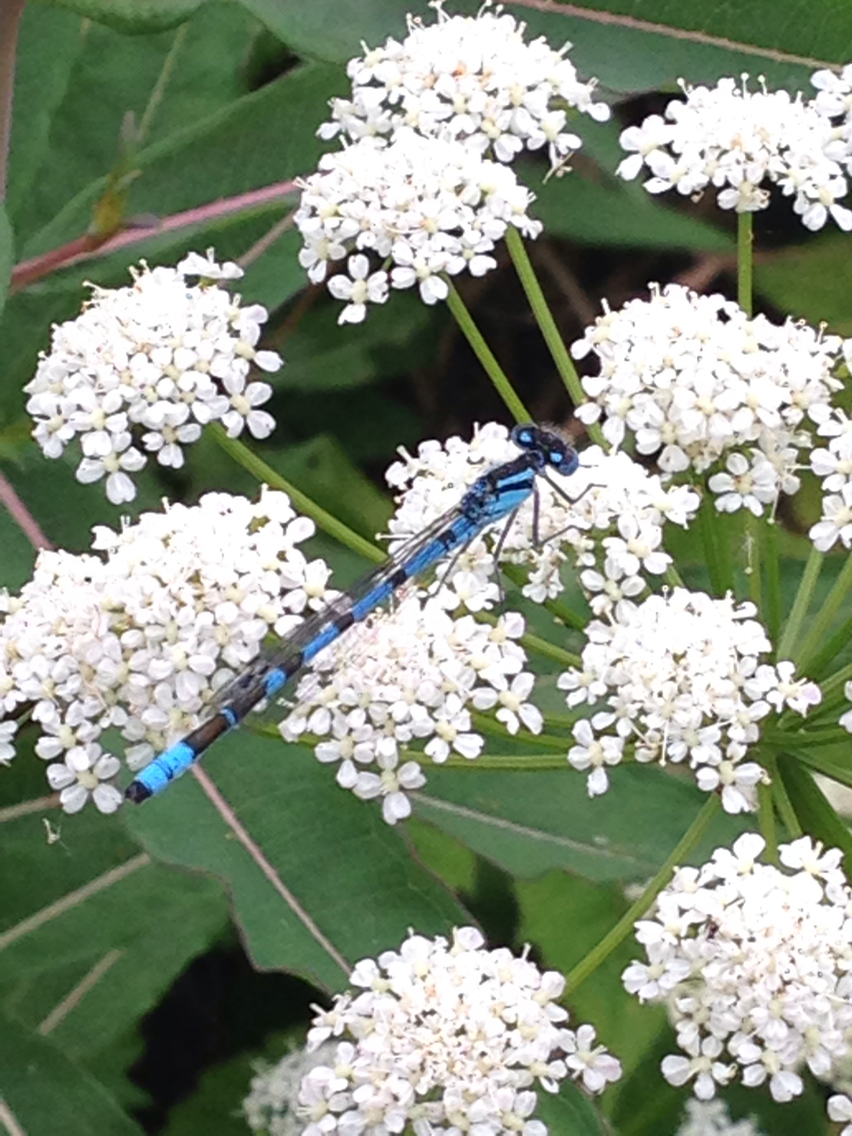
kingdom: Animalia
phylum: Arthropoda
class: Insecta
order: Odonata
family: Coenagrionidae
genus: Enallagma
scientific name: Enallagma cyathigerum
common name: Common blue damselfly
